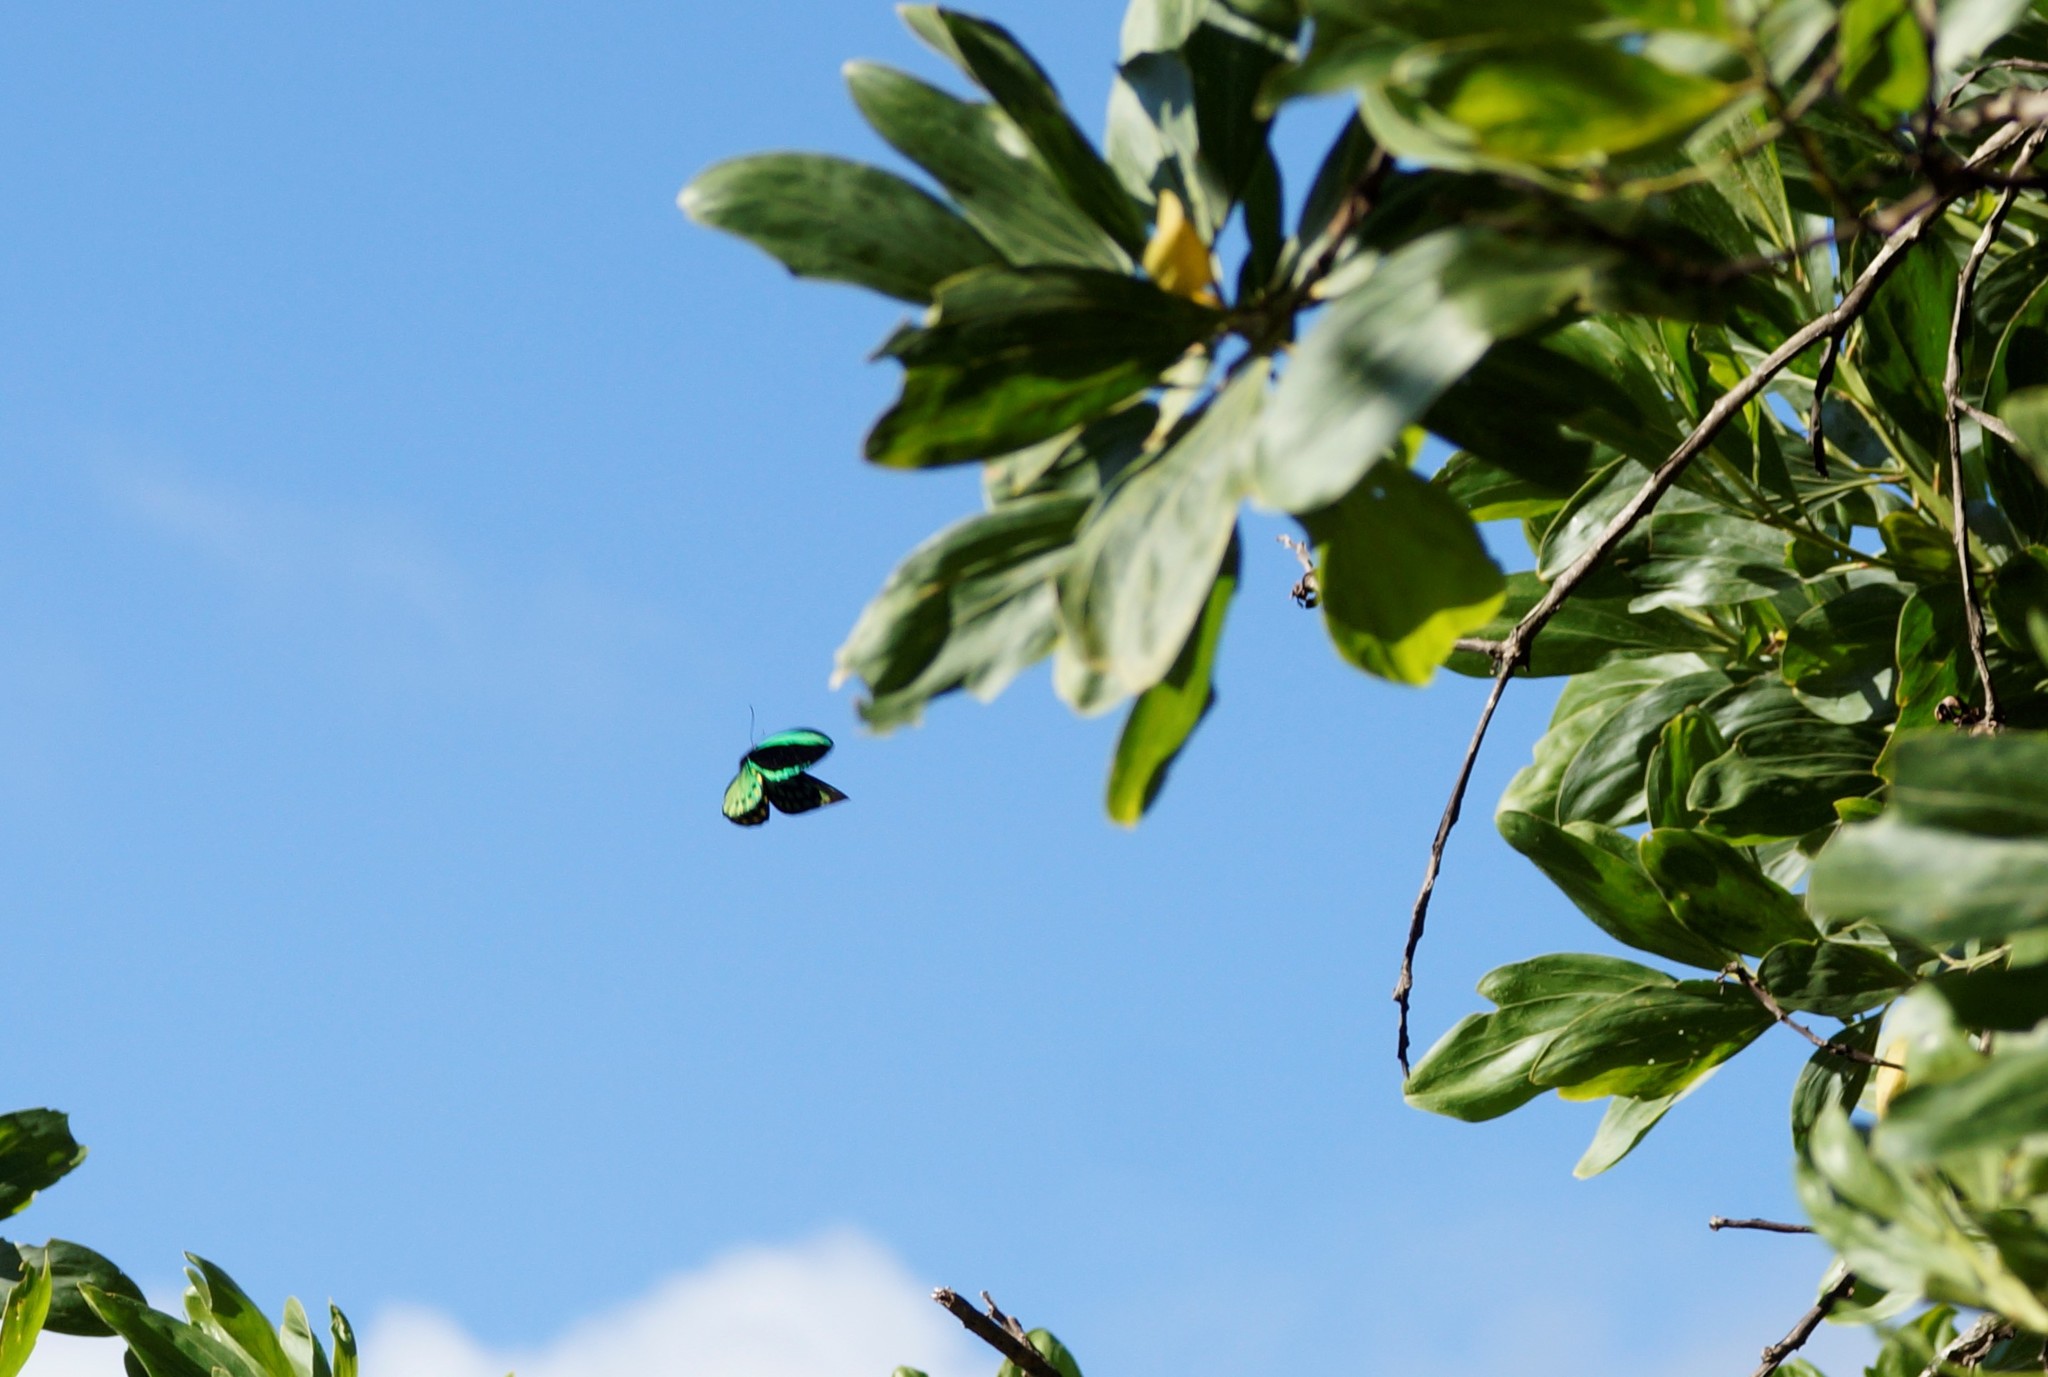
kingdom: Animalia
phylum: Arthropoda
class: Insecta
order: Lepidoptera
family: Papilionidae
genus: Ornithoptera
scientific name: Ornithoptera euphorion
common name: Cairns birdwing
